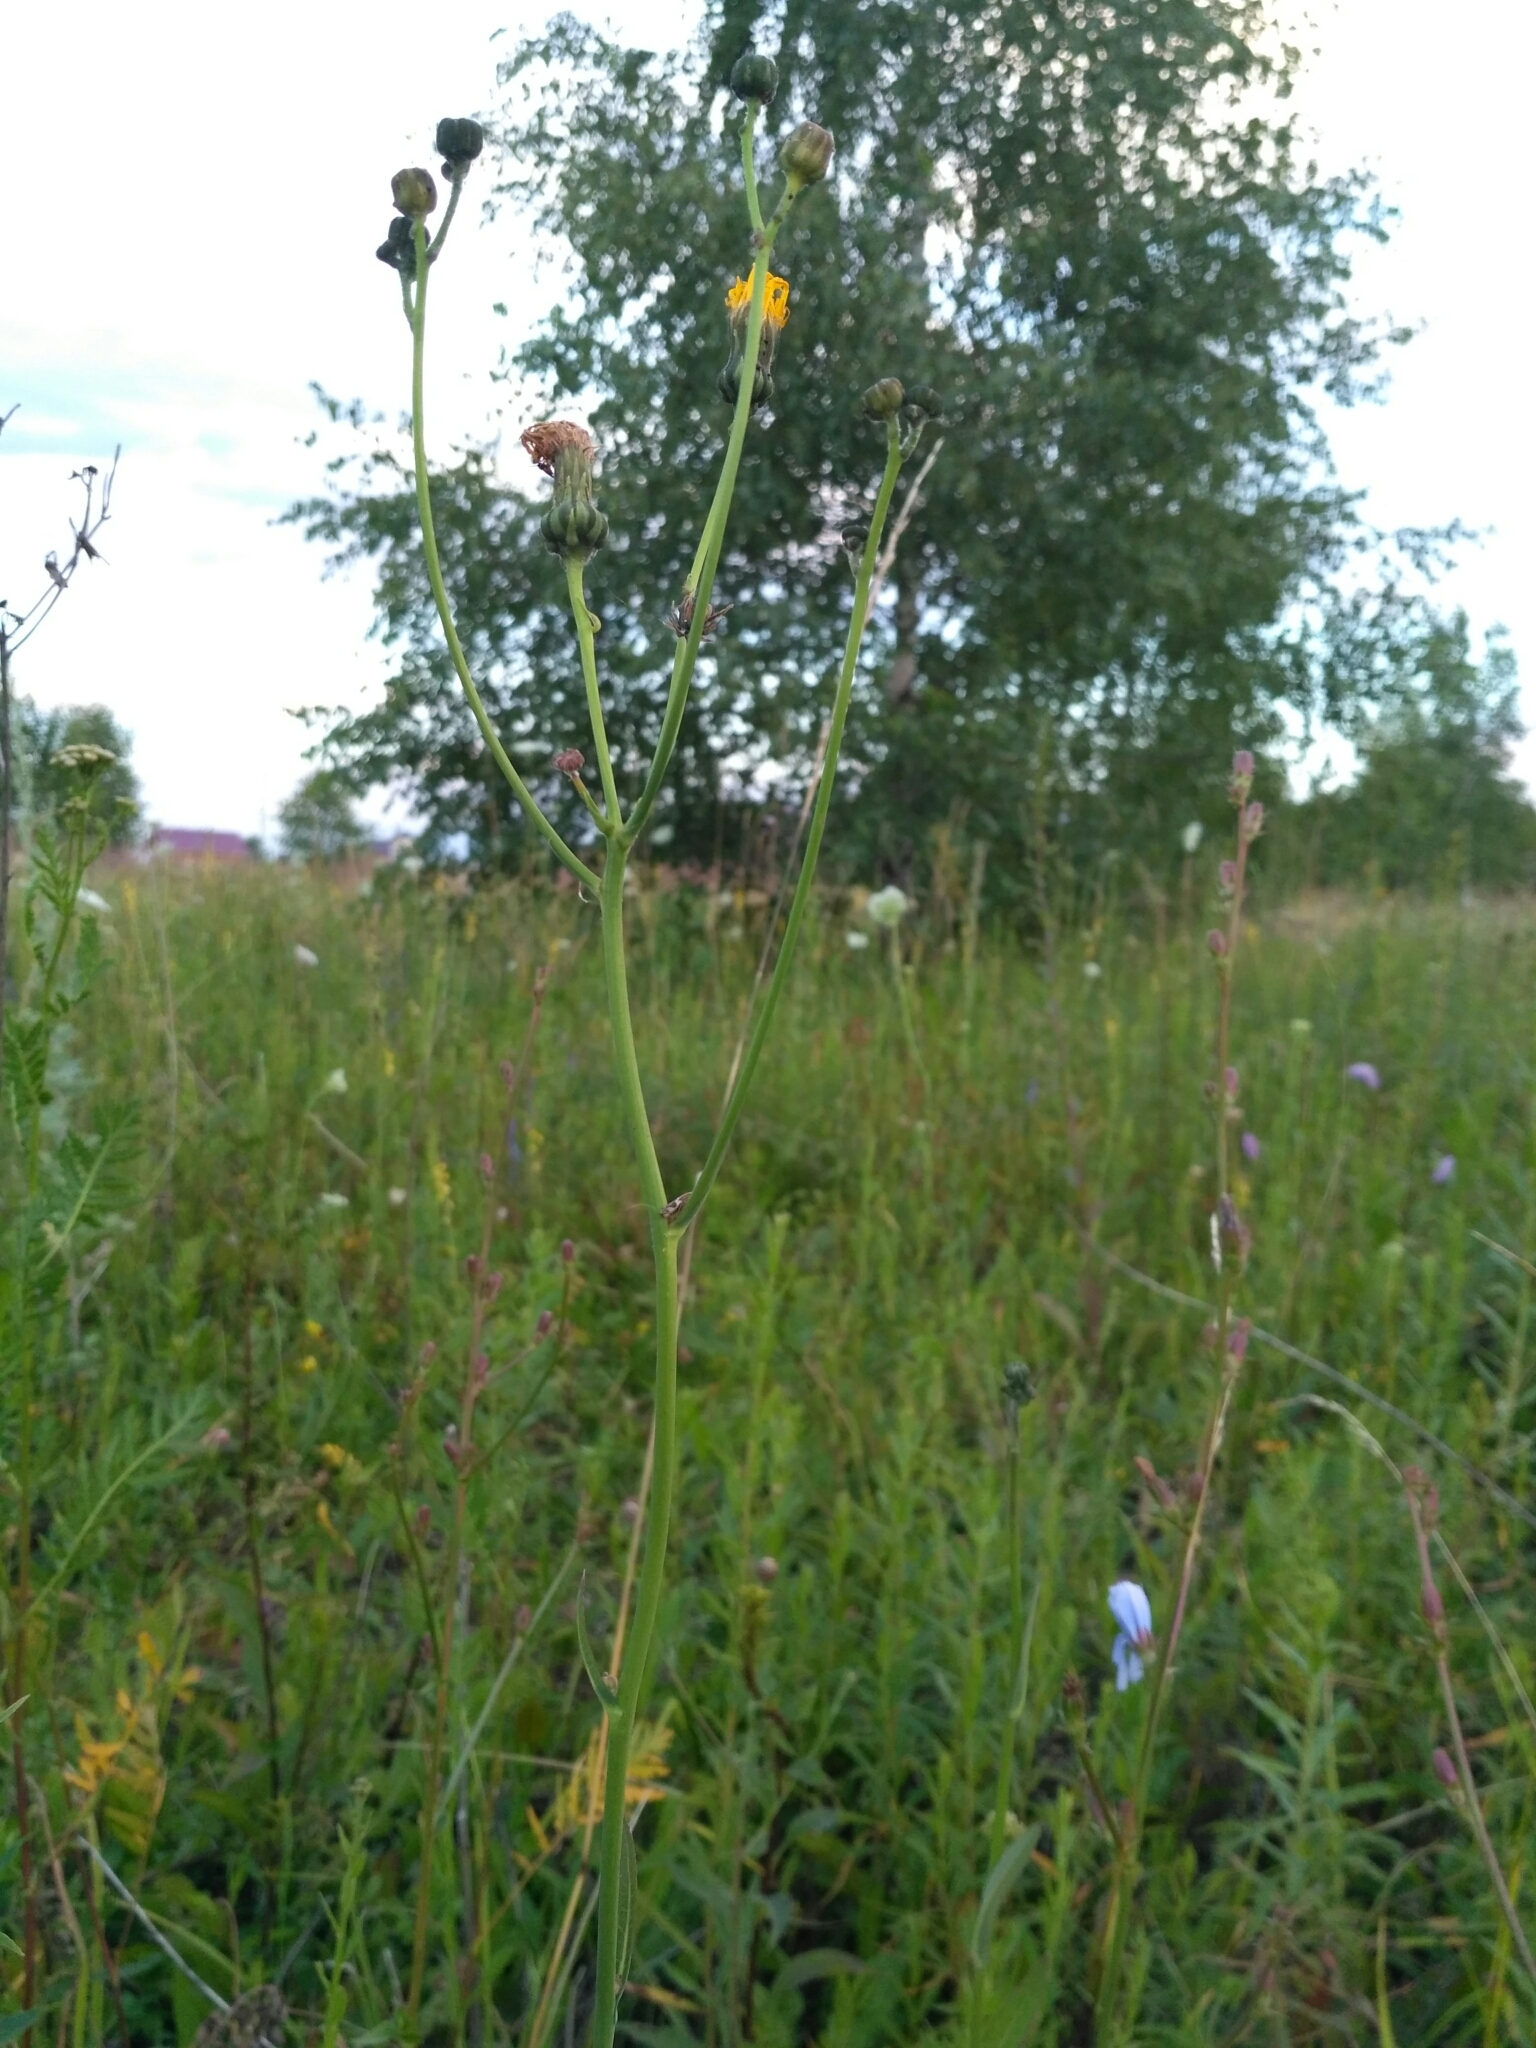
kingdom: Plantae
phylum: Tracheophyta
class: Magnoliopsida
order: Asterales
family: Asteraceae
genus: Sonchus
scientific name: Sonchus arvensis
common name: Perennial sow-thistle
